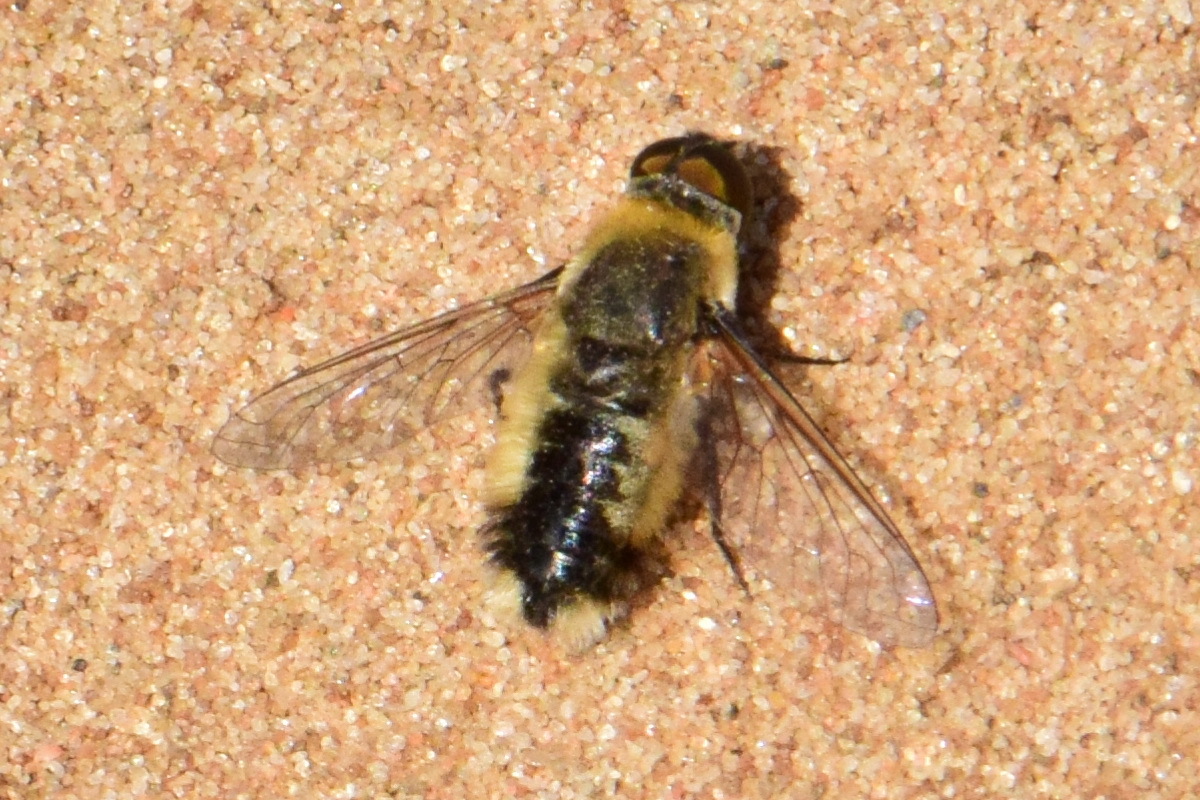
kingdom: Animalia
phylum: Arthropoda
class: Insecta
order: Diptera
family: Bombyliidae
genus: Villa
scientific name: Villa hottentotta
